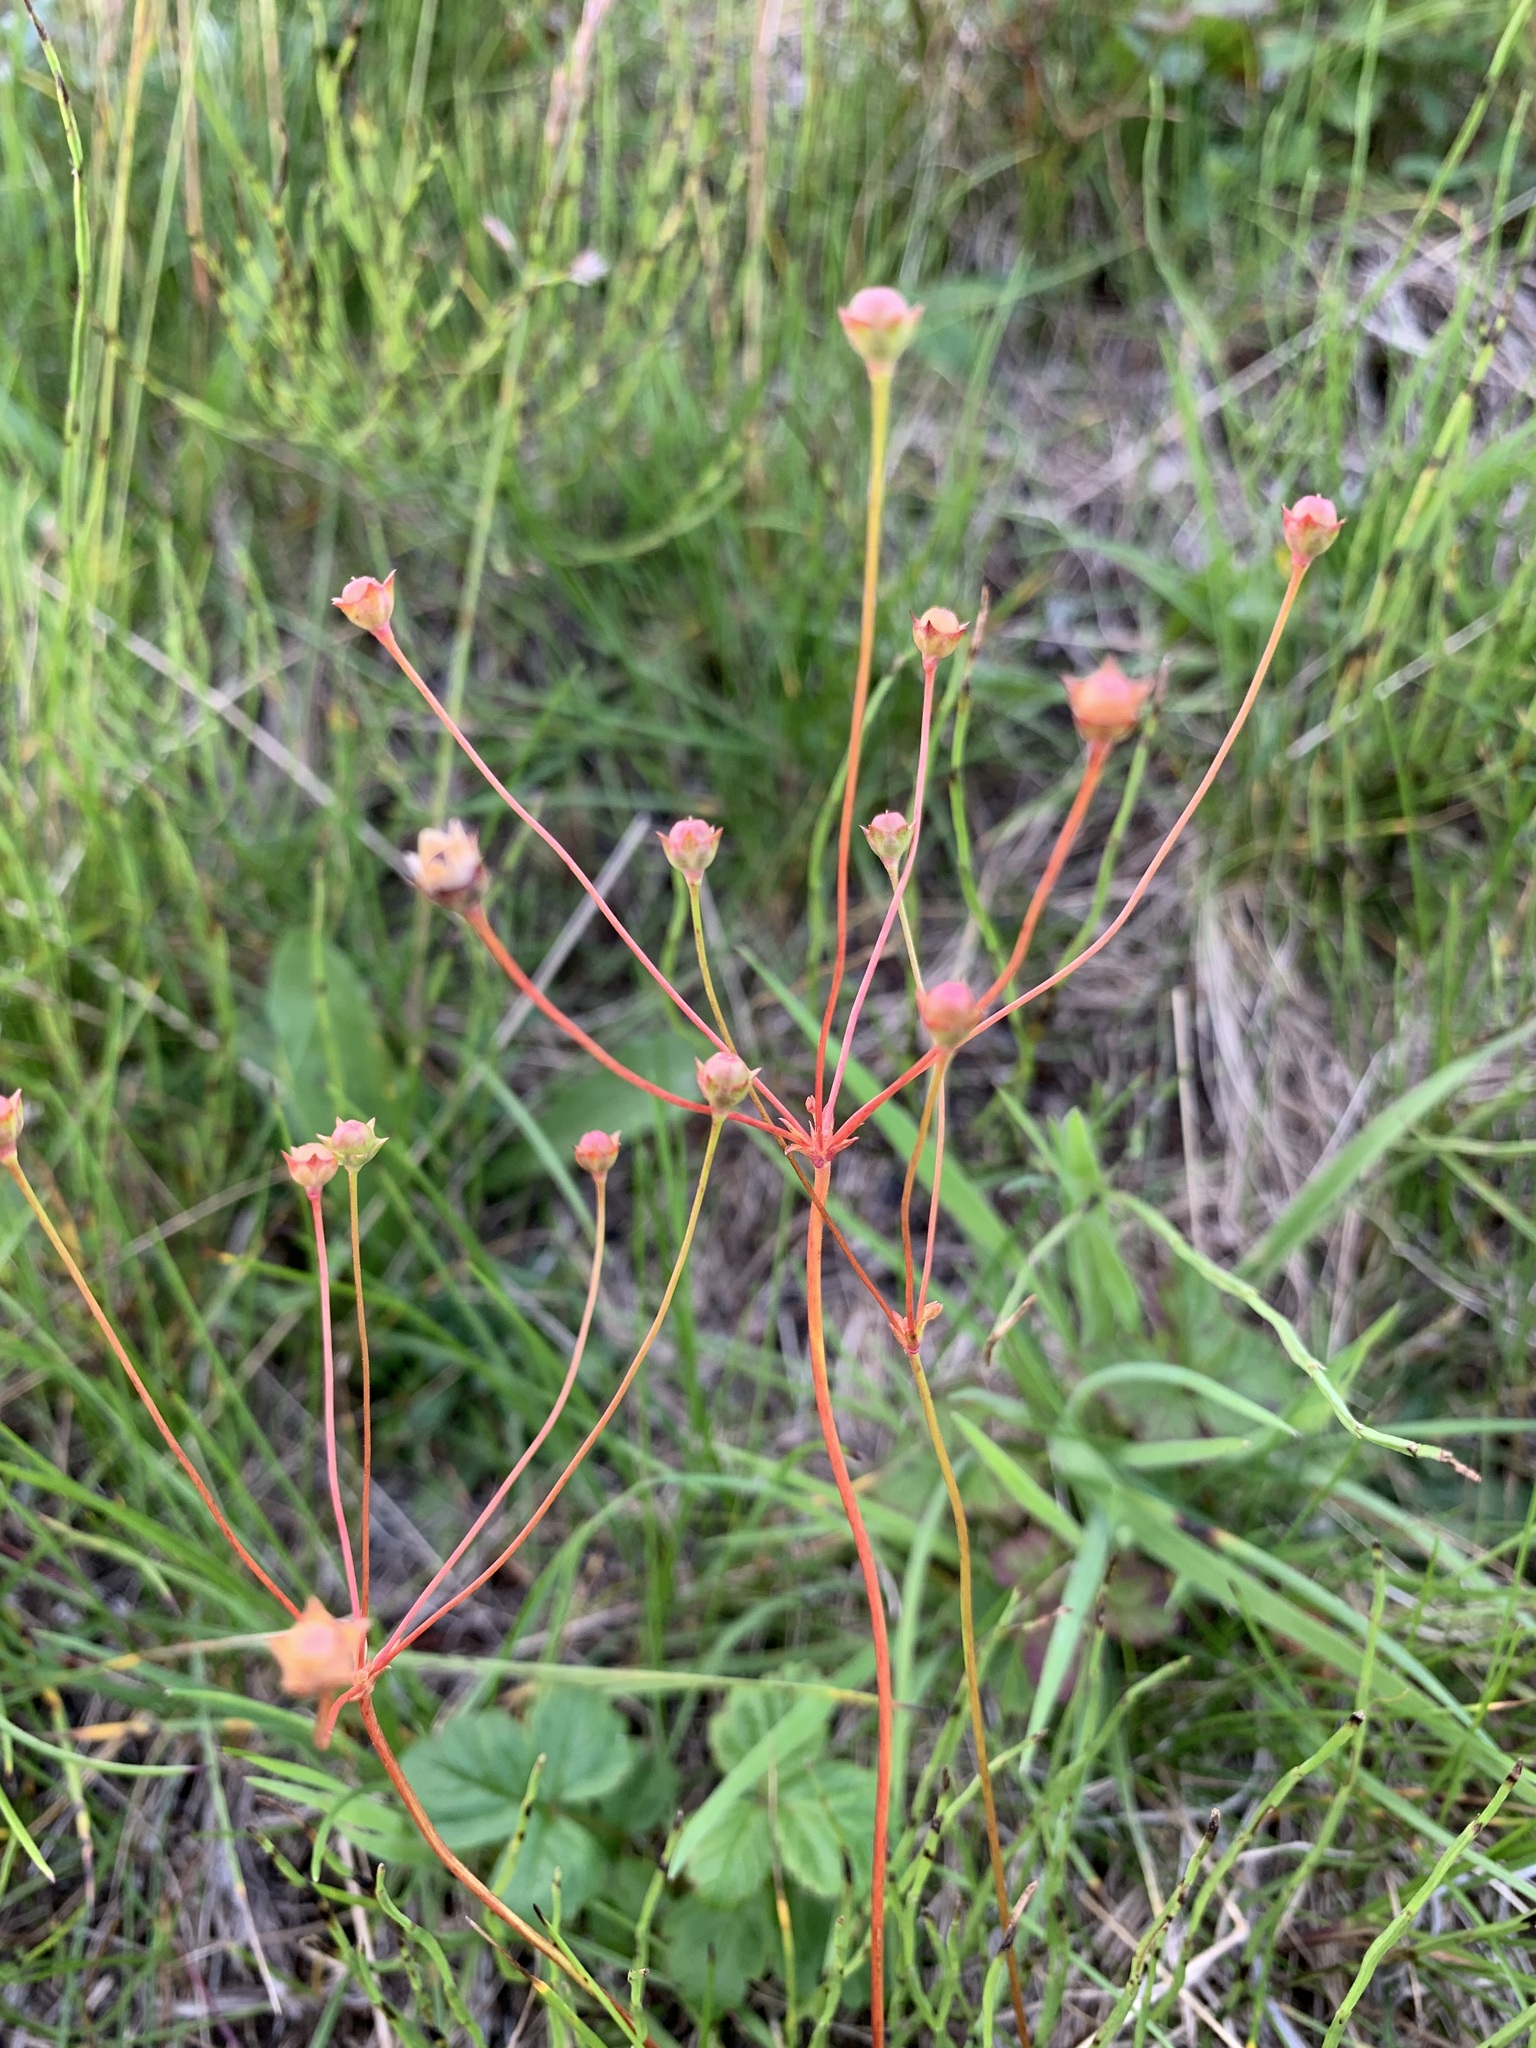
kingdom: Plantae
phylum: Tracheophyta
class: Magnoliopsida
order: Ericales
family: Primulaceae
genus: Androsace
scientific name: Androsace septentrionalis
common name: Hairy northern fairy-candelabra
